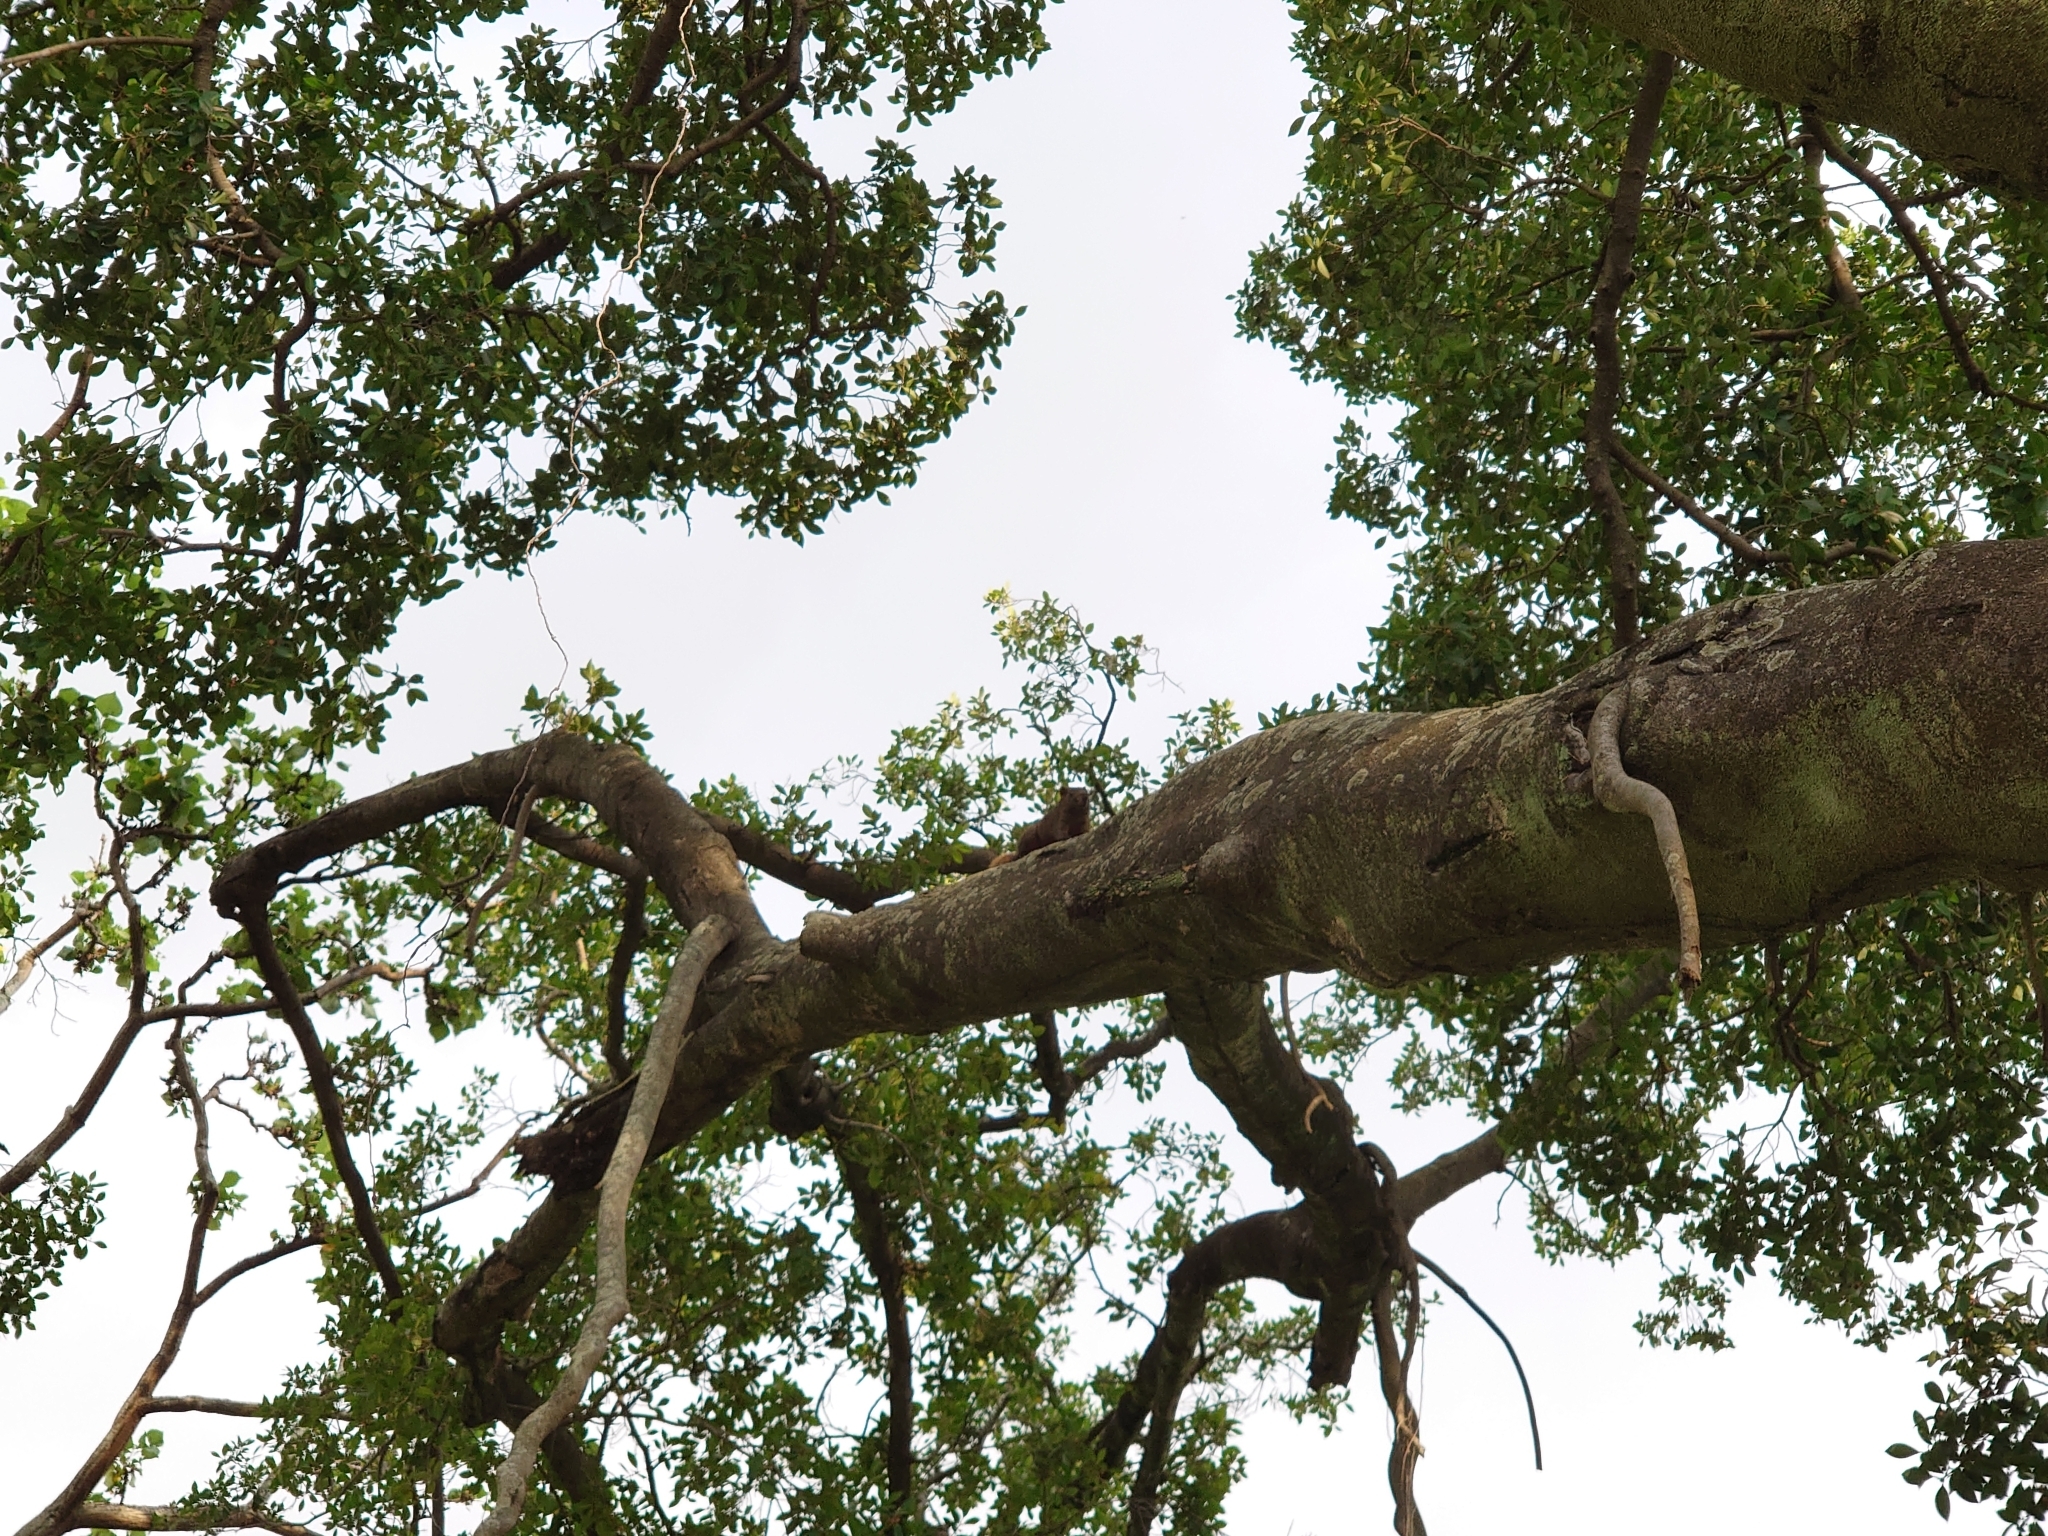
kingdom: Animalia
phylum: Chordata
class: Mammalia
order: Rodentia
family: Sciuridae
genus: Callosciurus
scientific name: Callosciurus erythraeus
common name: Pallas's squirrel
